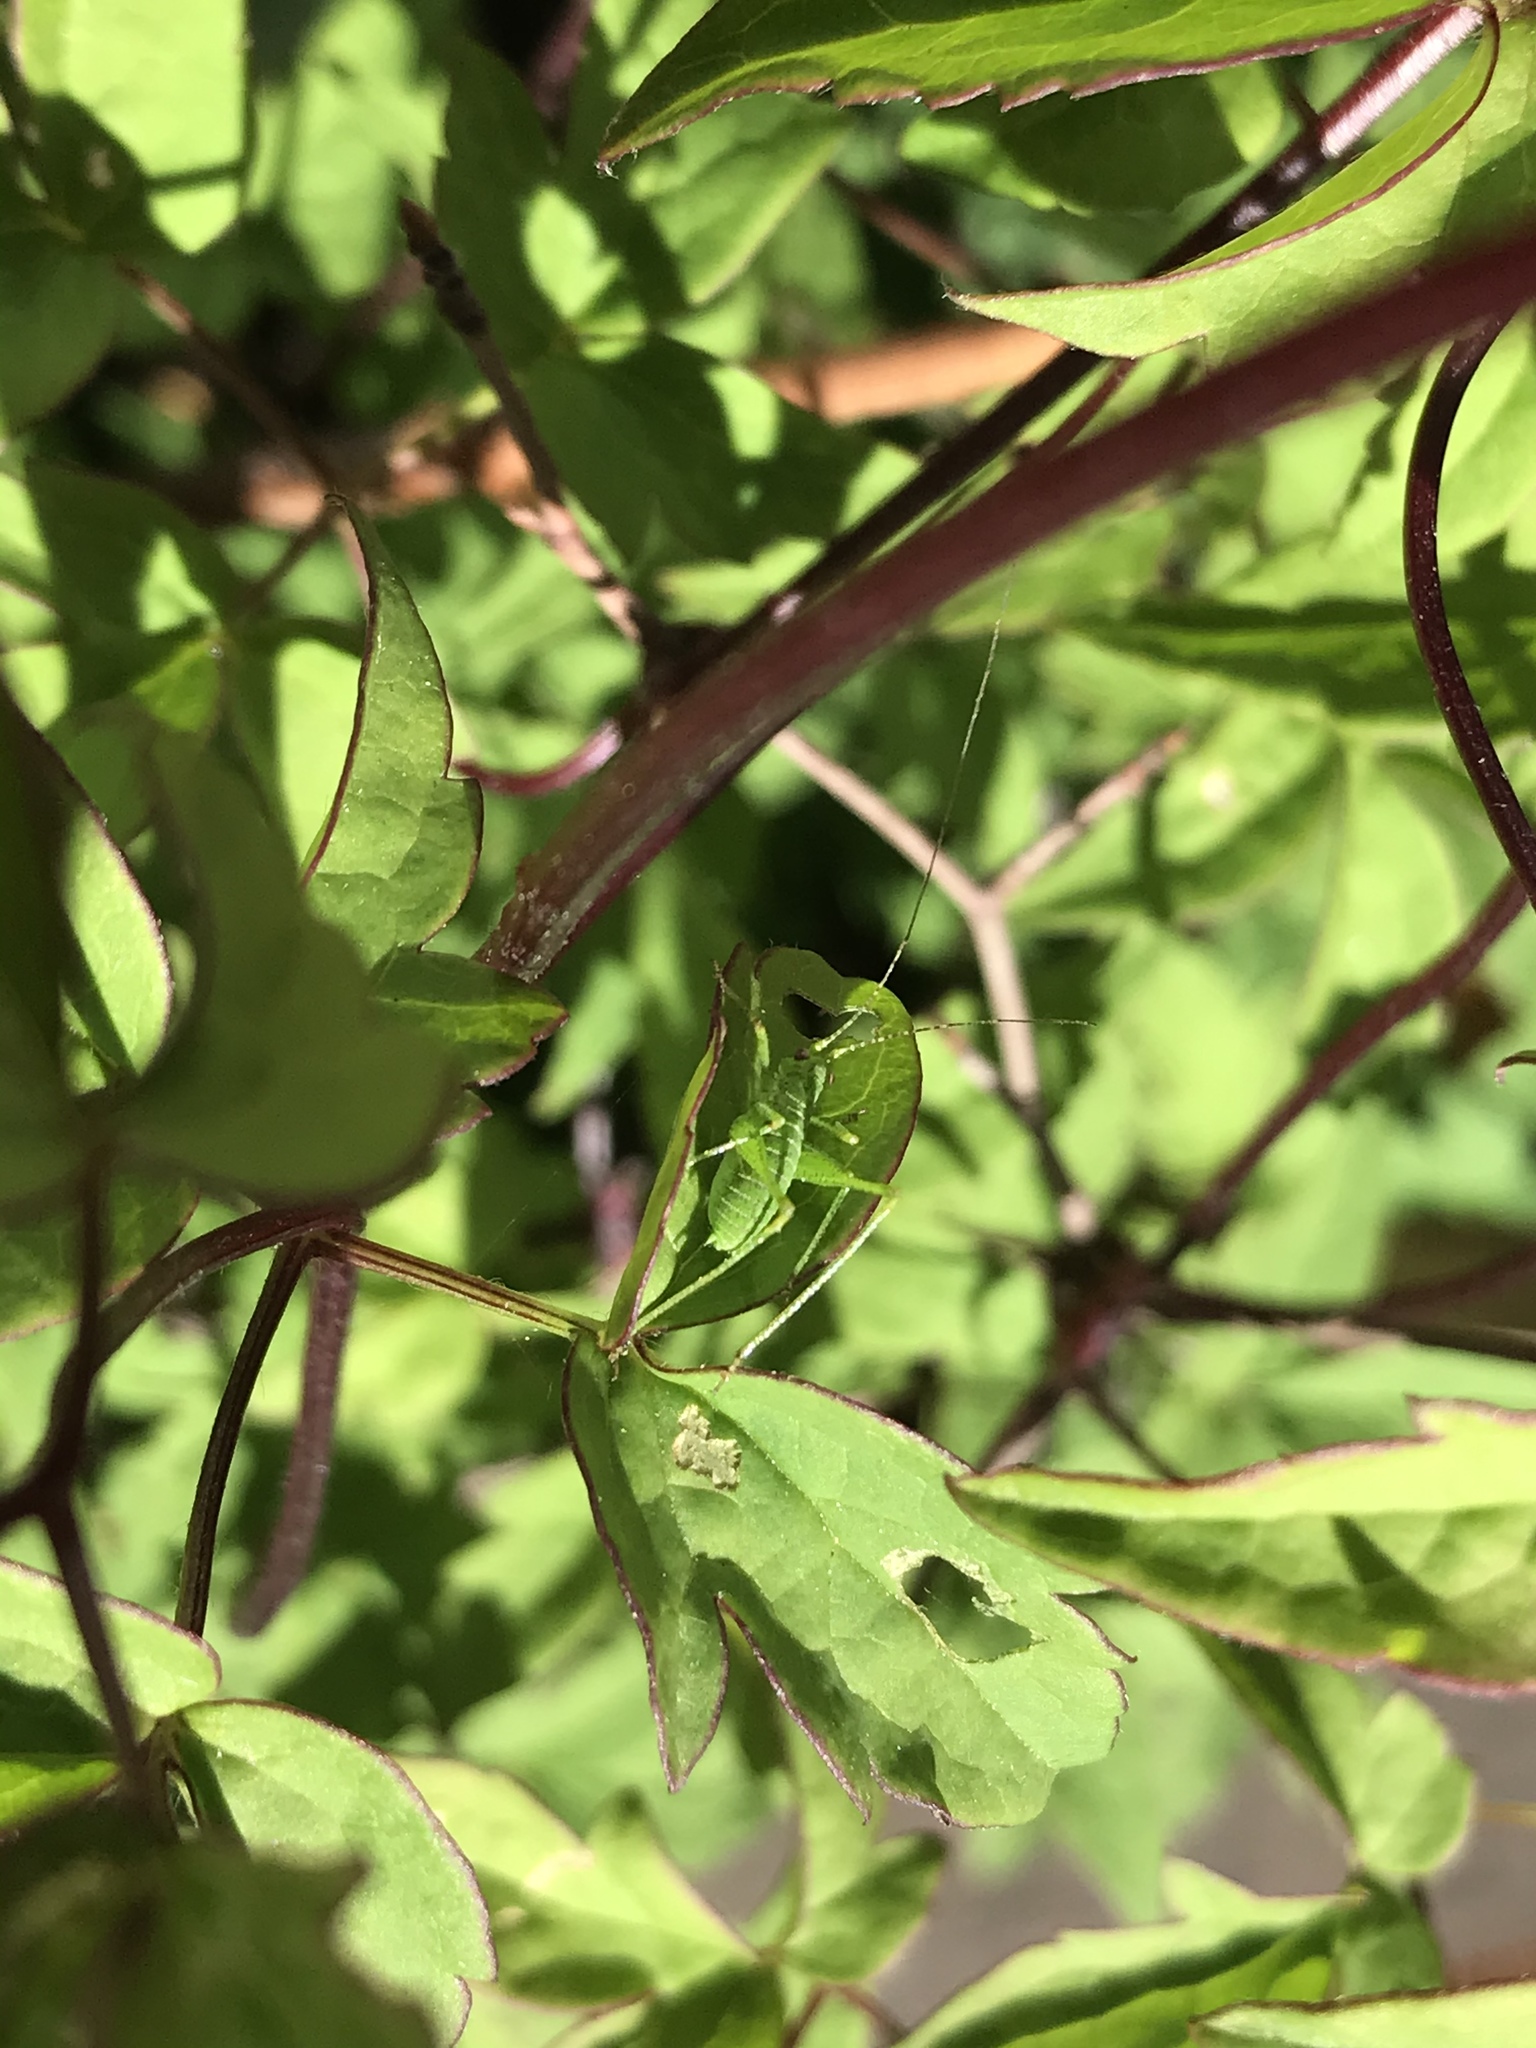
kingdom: Animalia
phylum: Arthropoda
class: Insecta
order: Orthoptera
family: Tettigoniidae
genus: Phaneroptera
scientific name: Phaneroptera nana
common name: Southern sickle bush-cricket
